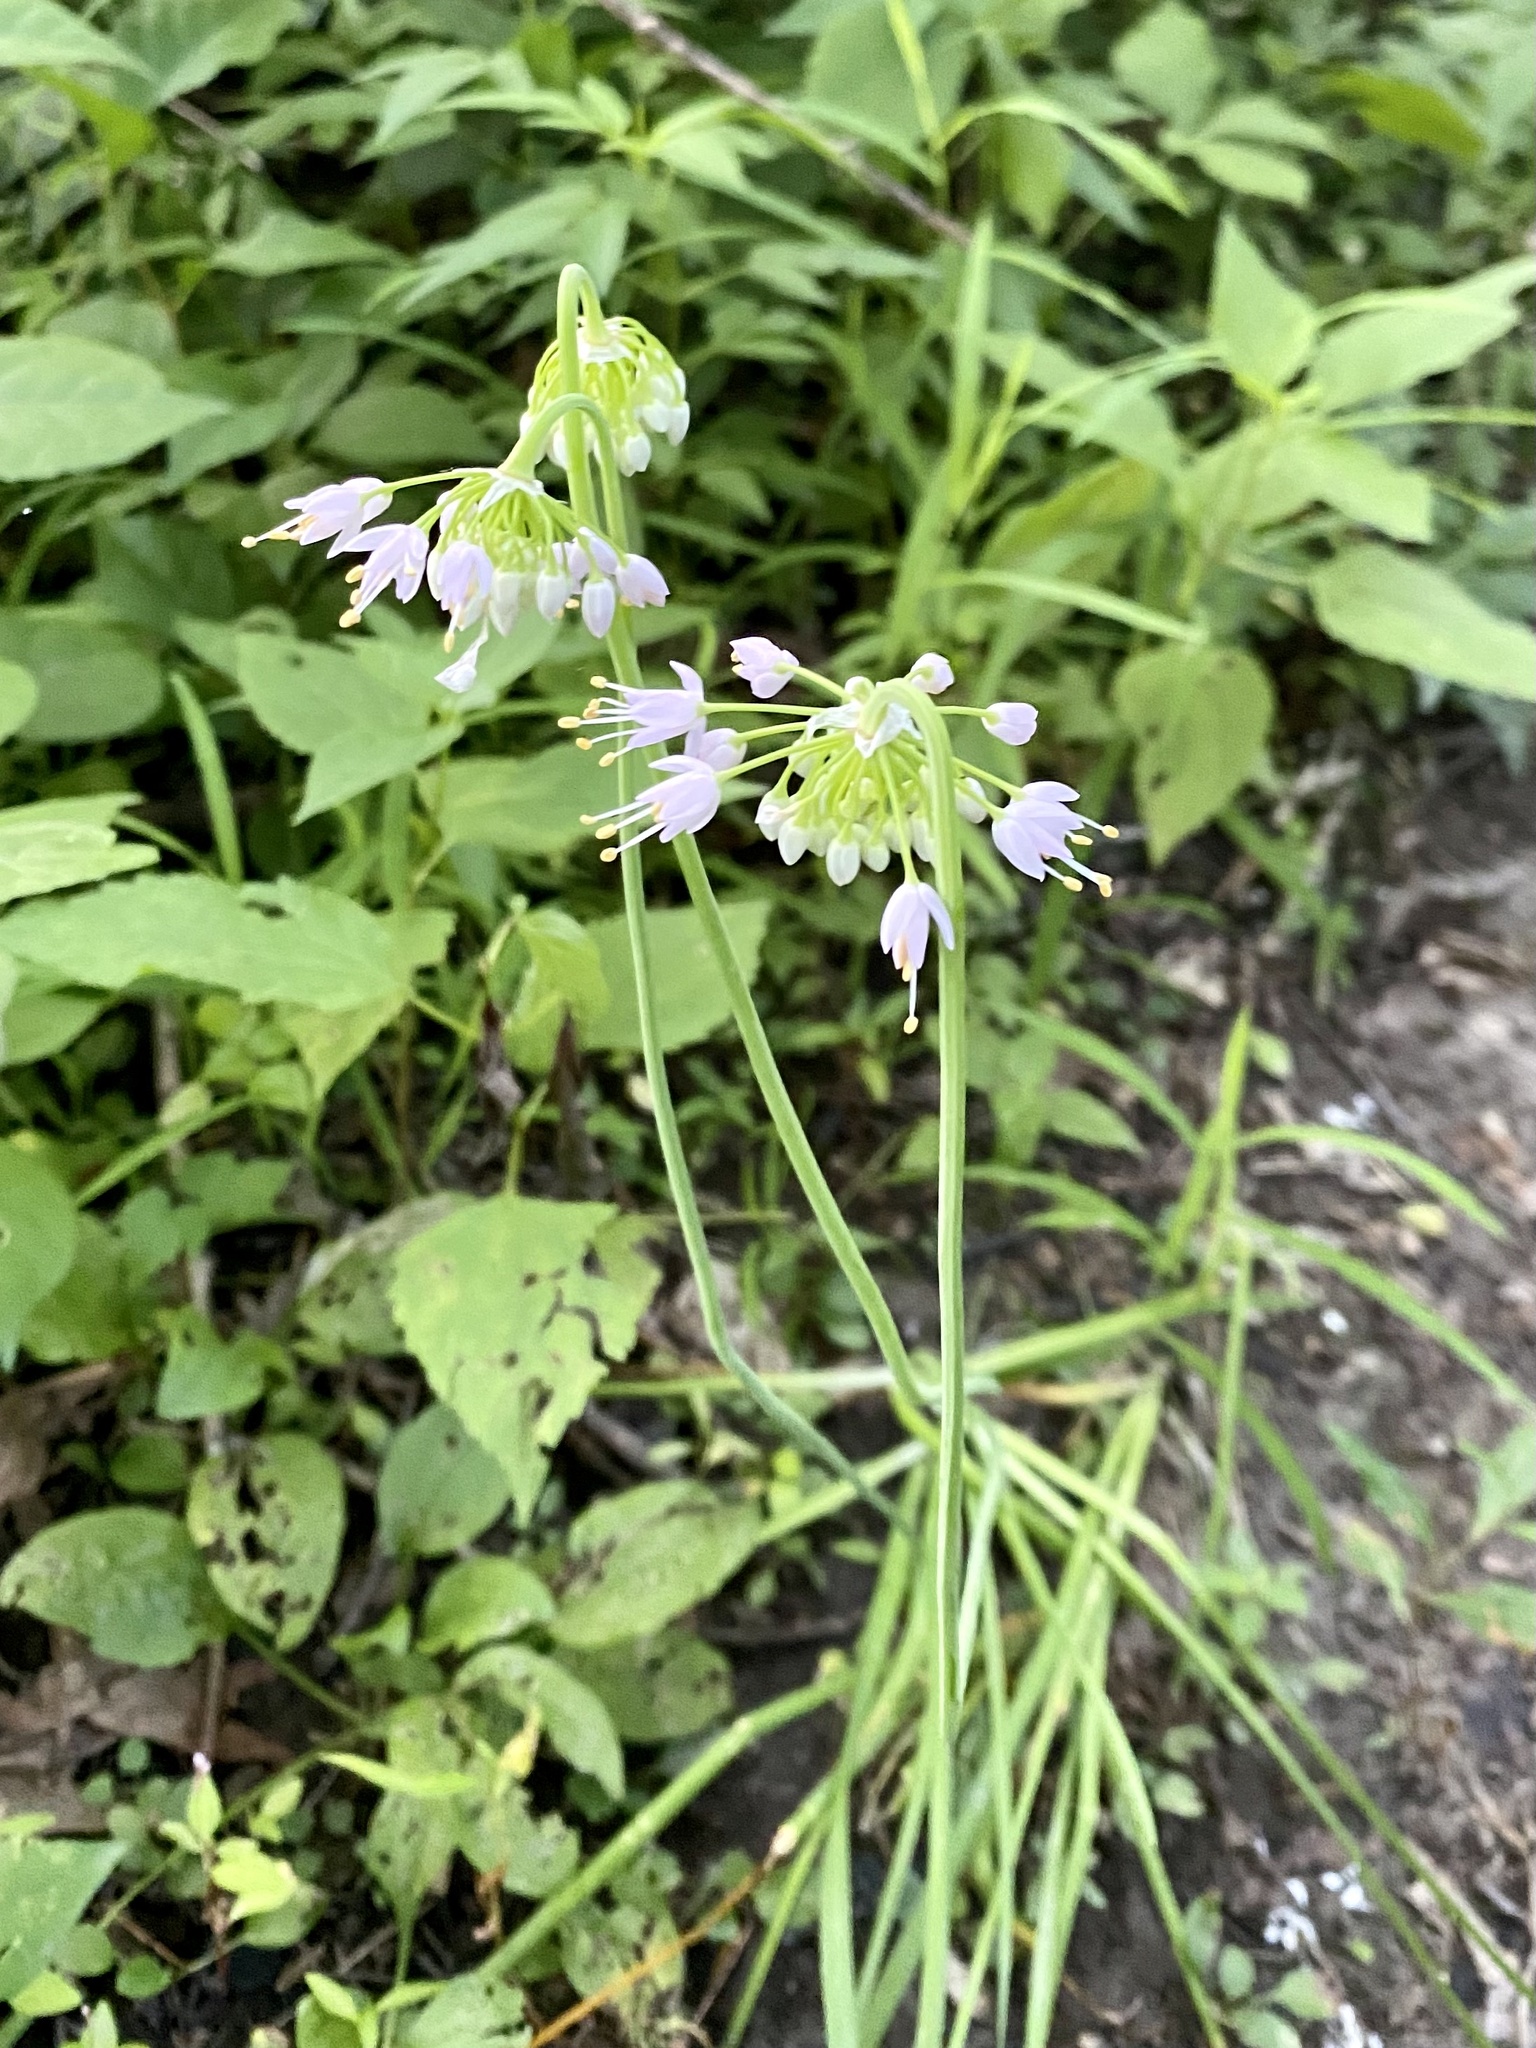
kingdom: Plantae
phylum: Tracheophyta
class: Liliopsida
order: Asparagales
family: Amaryllidaceae
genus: Allium
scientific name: Allium cernuum
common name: Nodding onion
